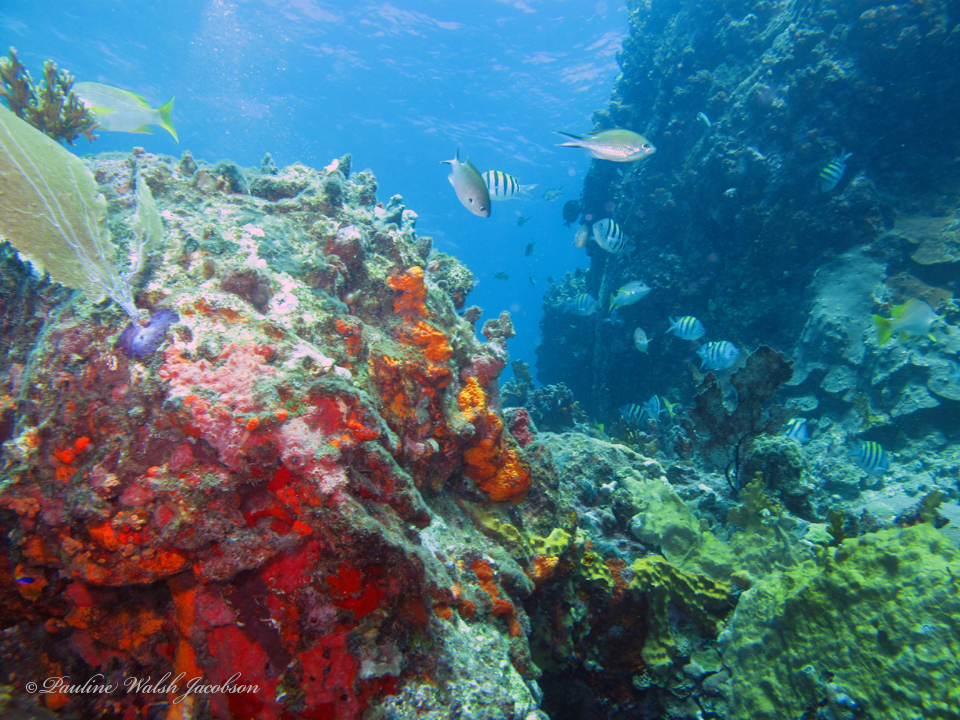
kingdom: Animalia
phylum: Chordata
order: Perciformes
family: Pomacentridae
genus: Chromis
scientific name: Chromis multilineata
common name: Brown chromis
